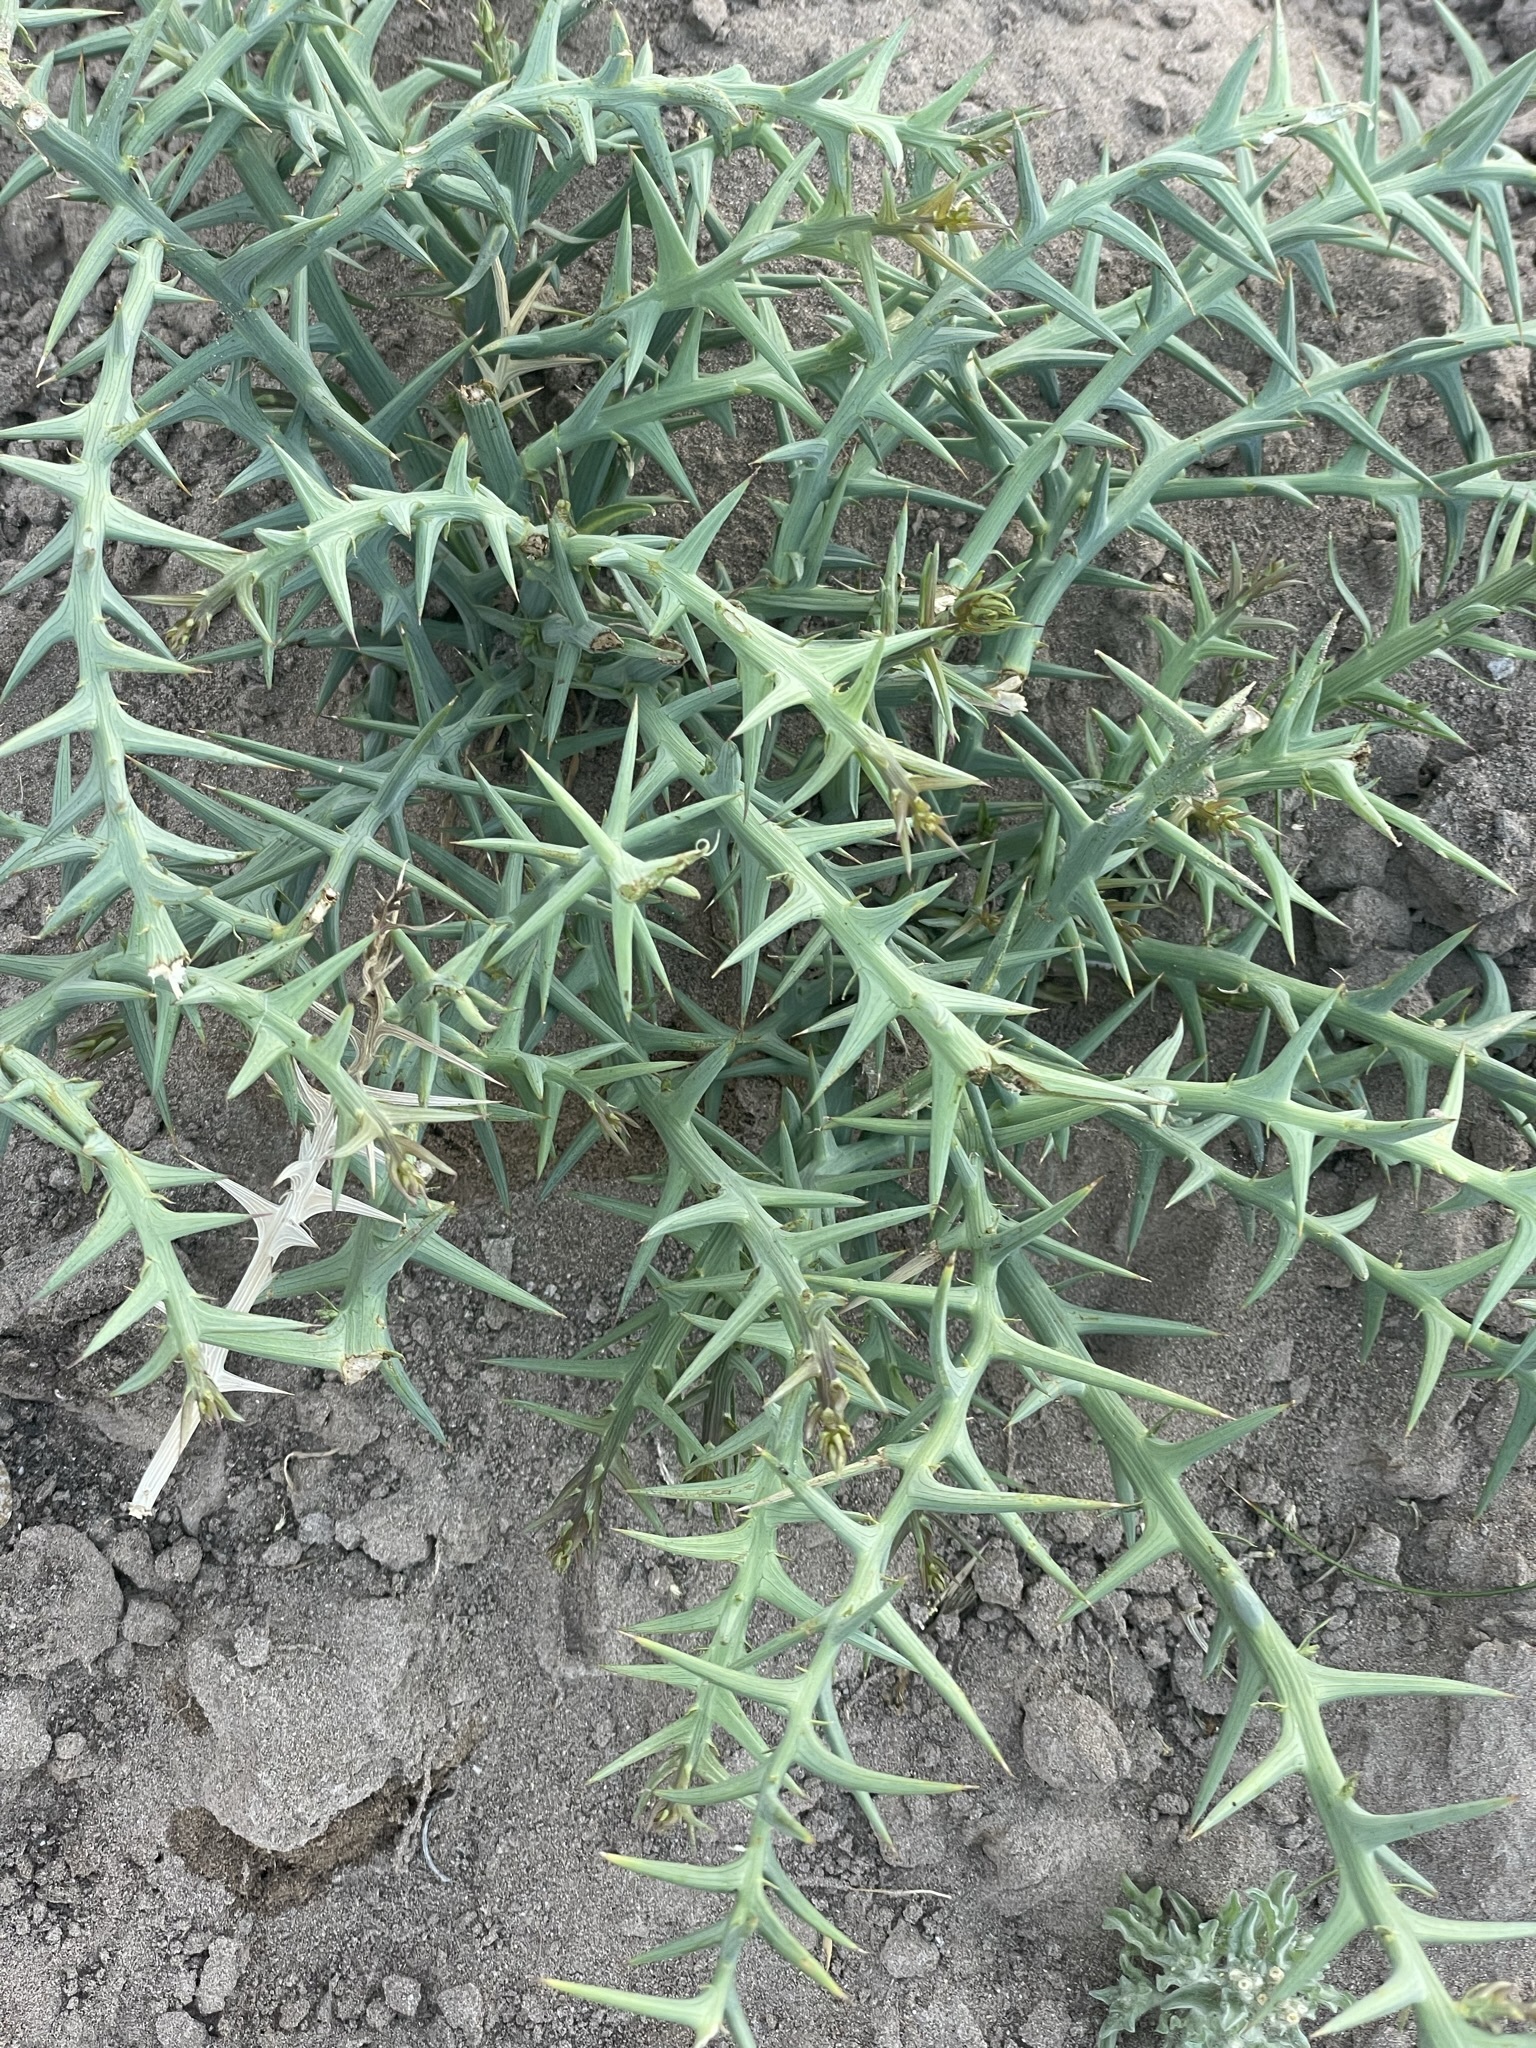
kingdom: Plantae
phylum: Tracheophyta
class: Magnoliopsida
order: Asterales
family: Asteraceae
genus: Chloracantha
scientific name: Chloracantha spinosissima
